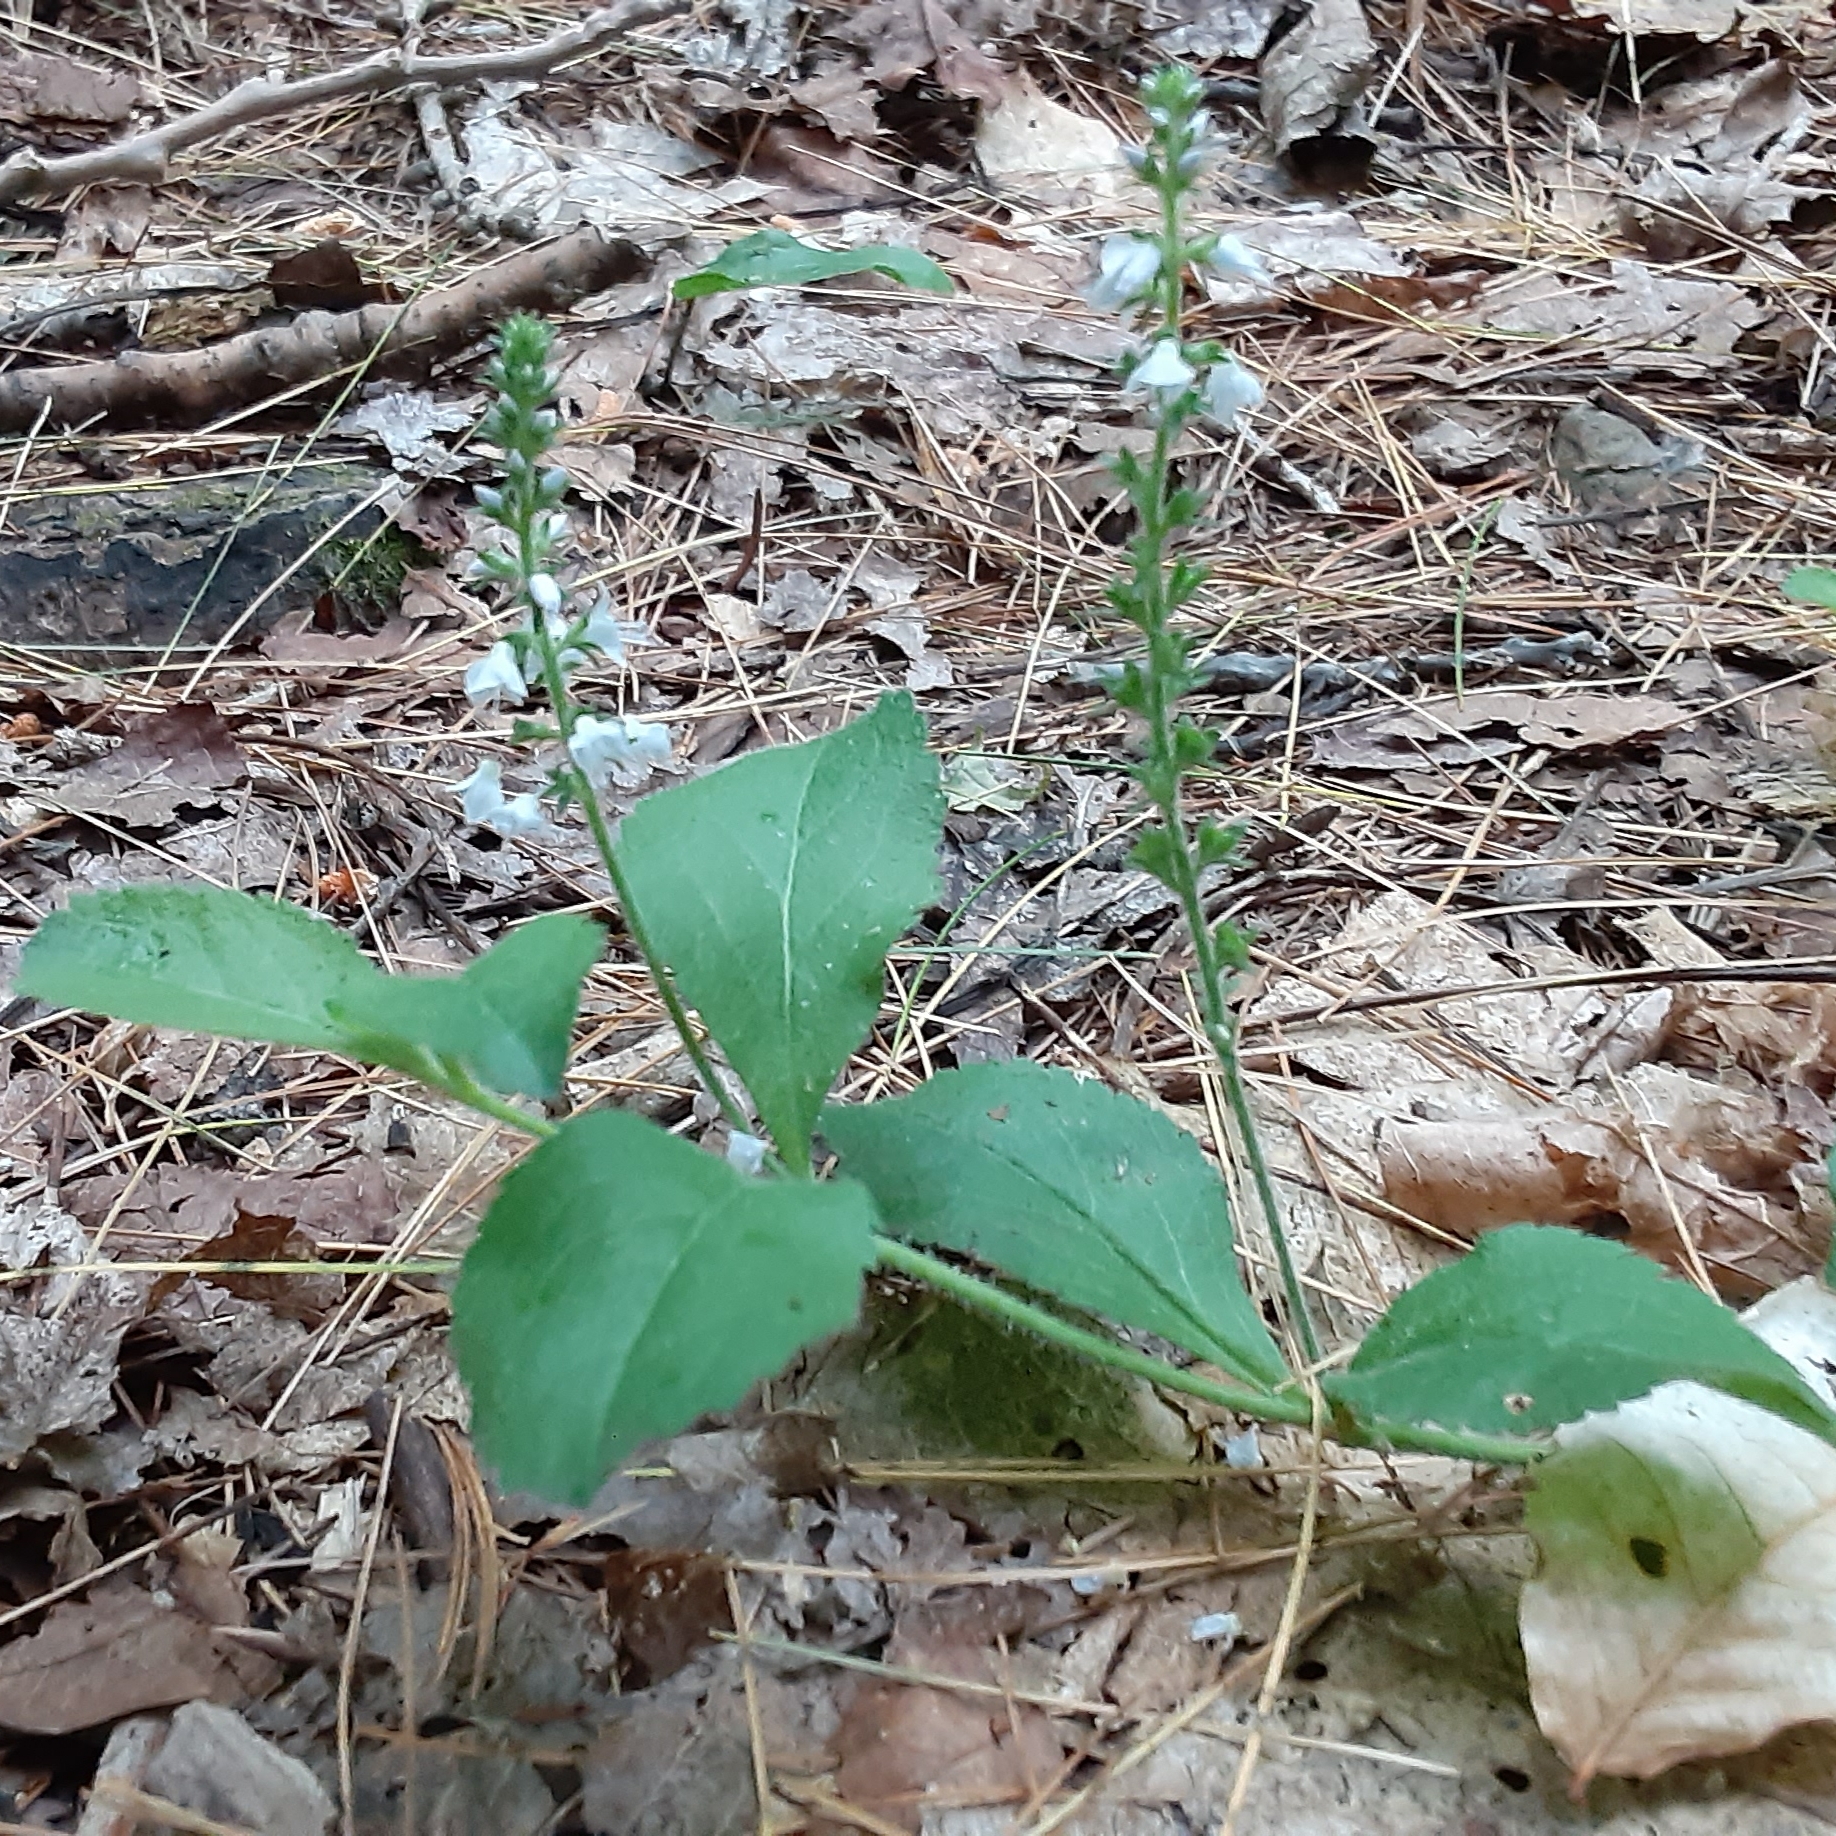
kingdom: Plantae
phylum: Tracheophyta
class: Magnoliopsida
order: Lamiales
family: Plantaginaceae
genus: Veronica
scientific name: Veronica officinalis
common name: Common speedwell
